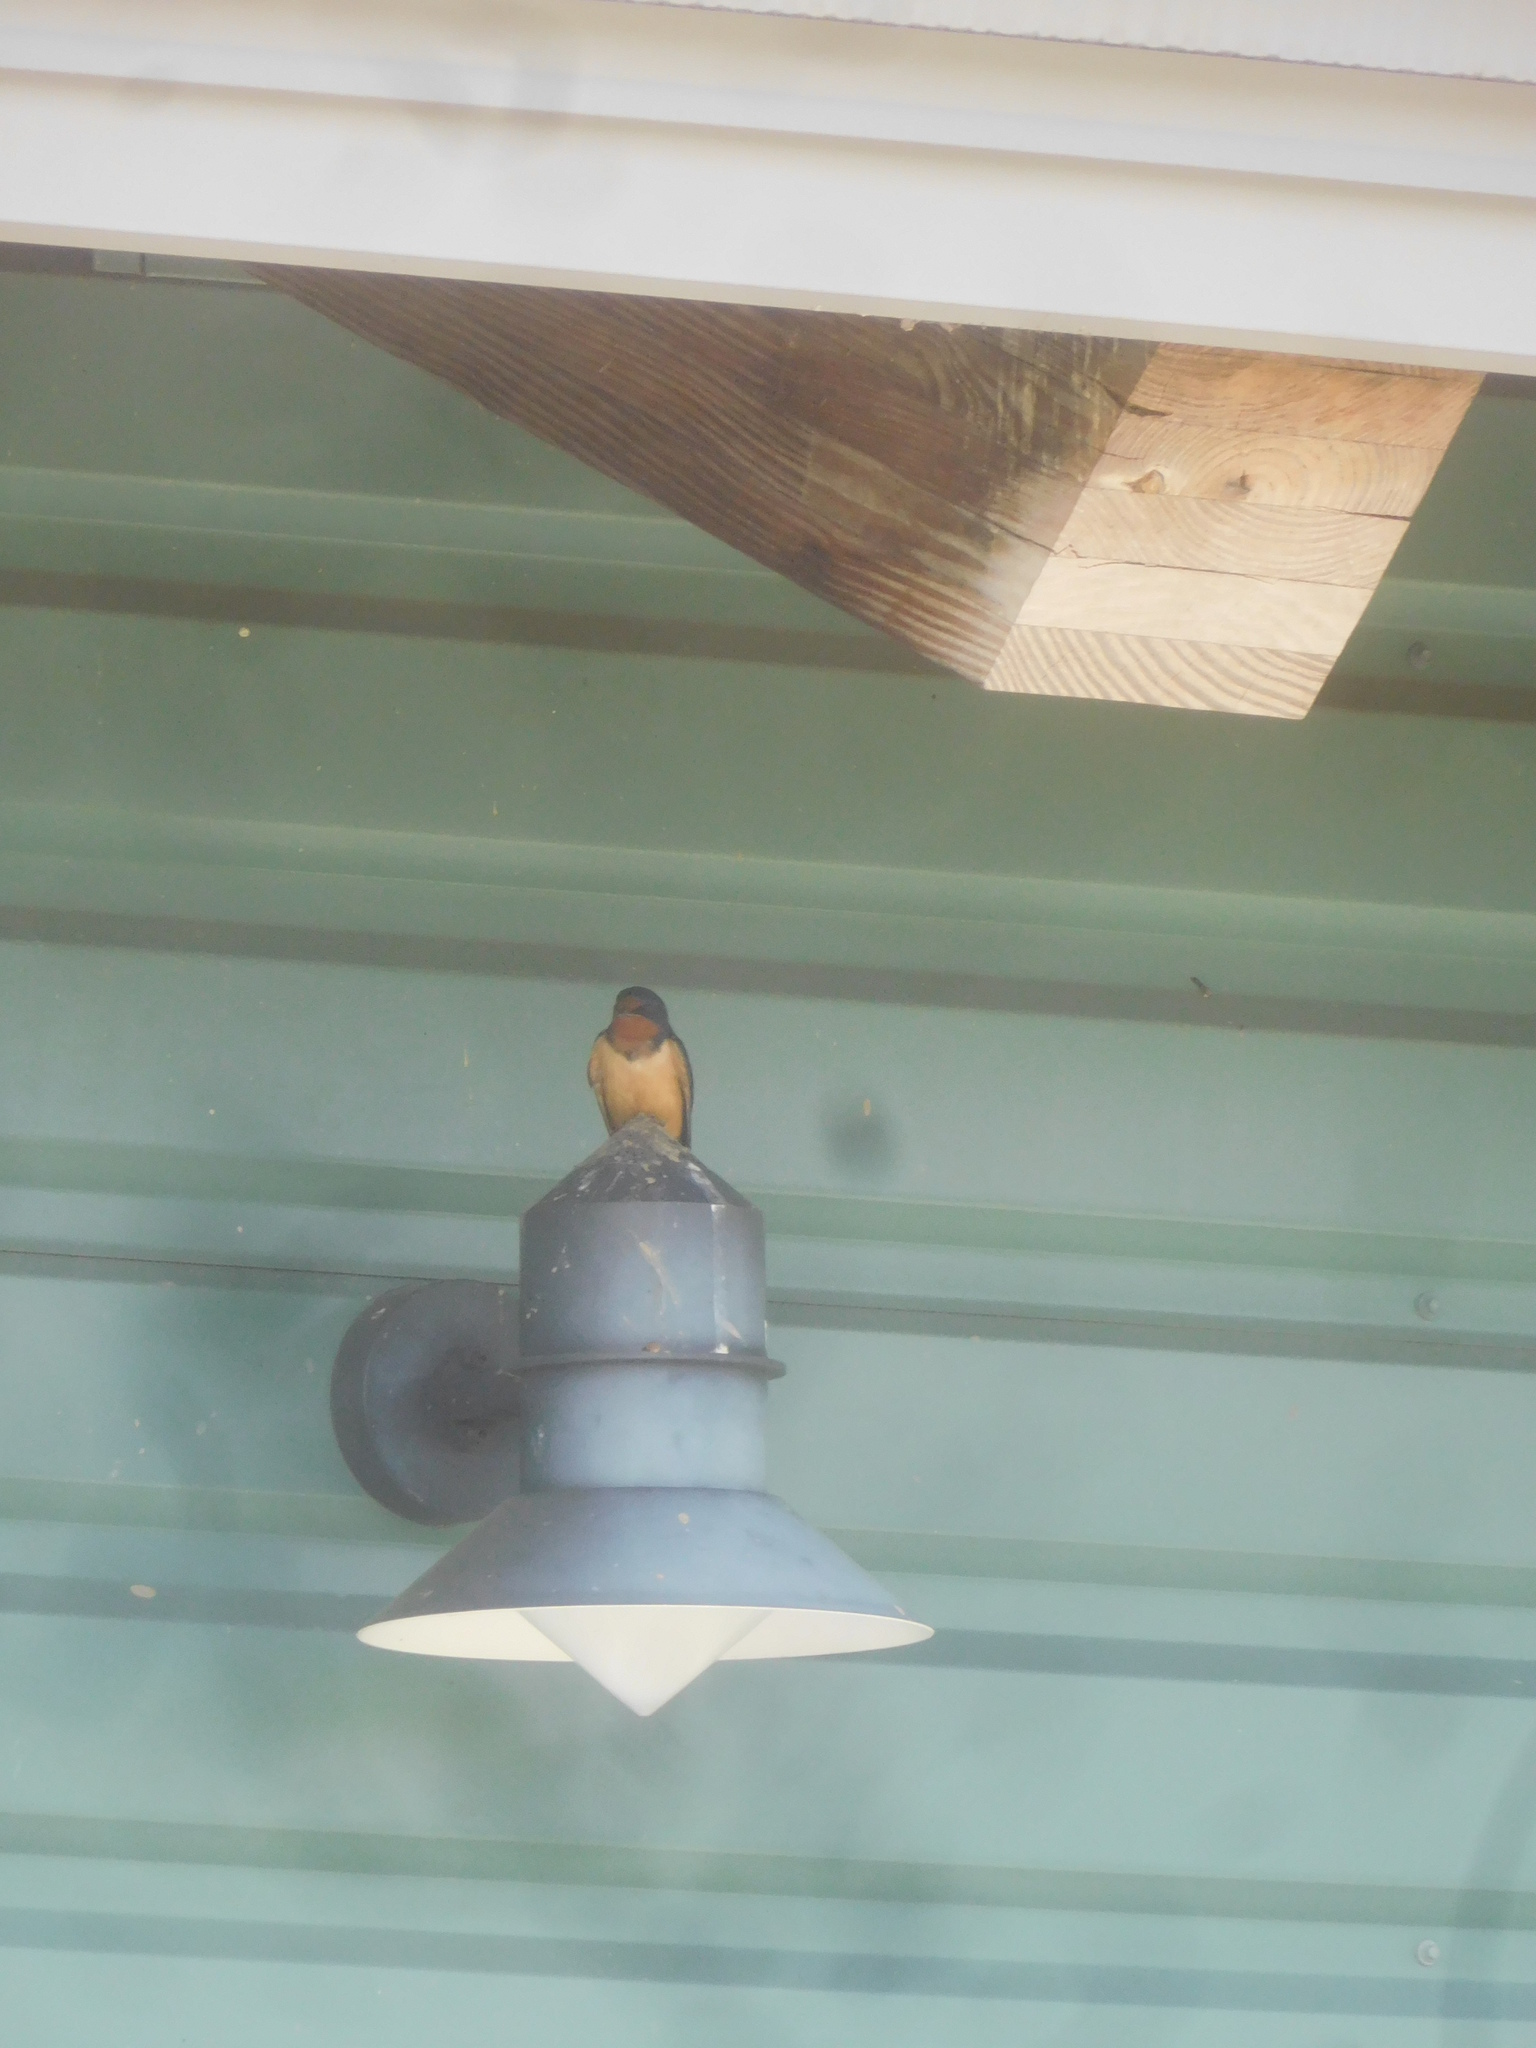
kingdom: Animalia
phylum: Chordata
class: Aves
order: Passeriformes
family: Hirundinidae
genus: Hirundo
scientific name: Hirundo rustica
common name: Barn swallow
